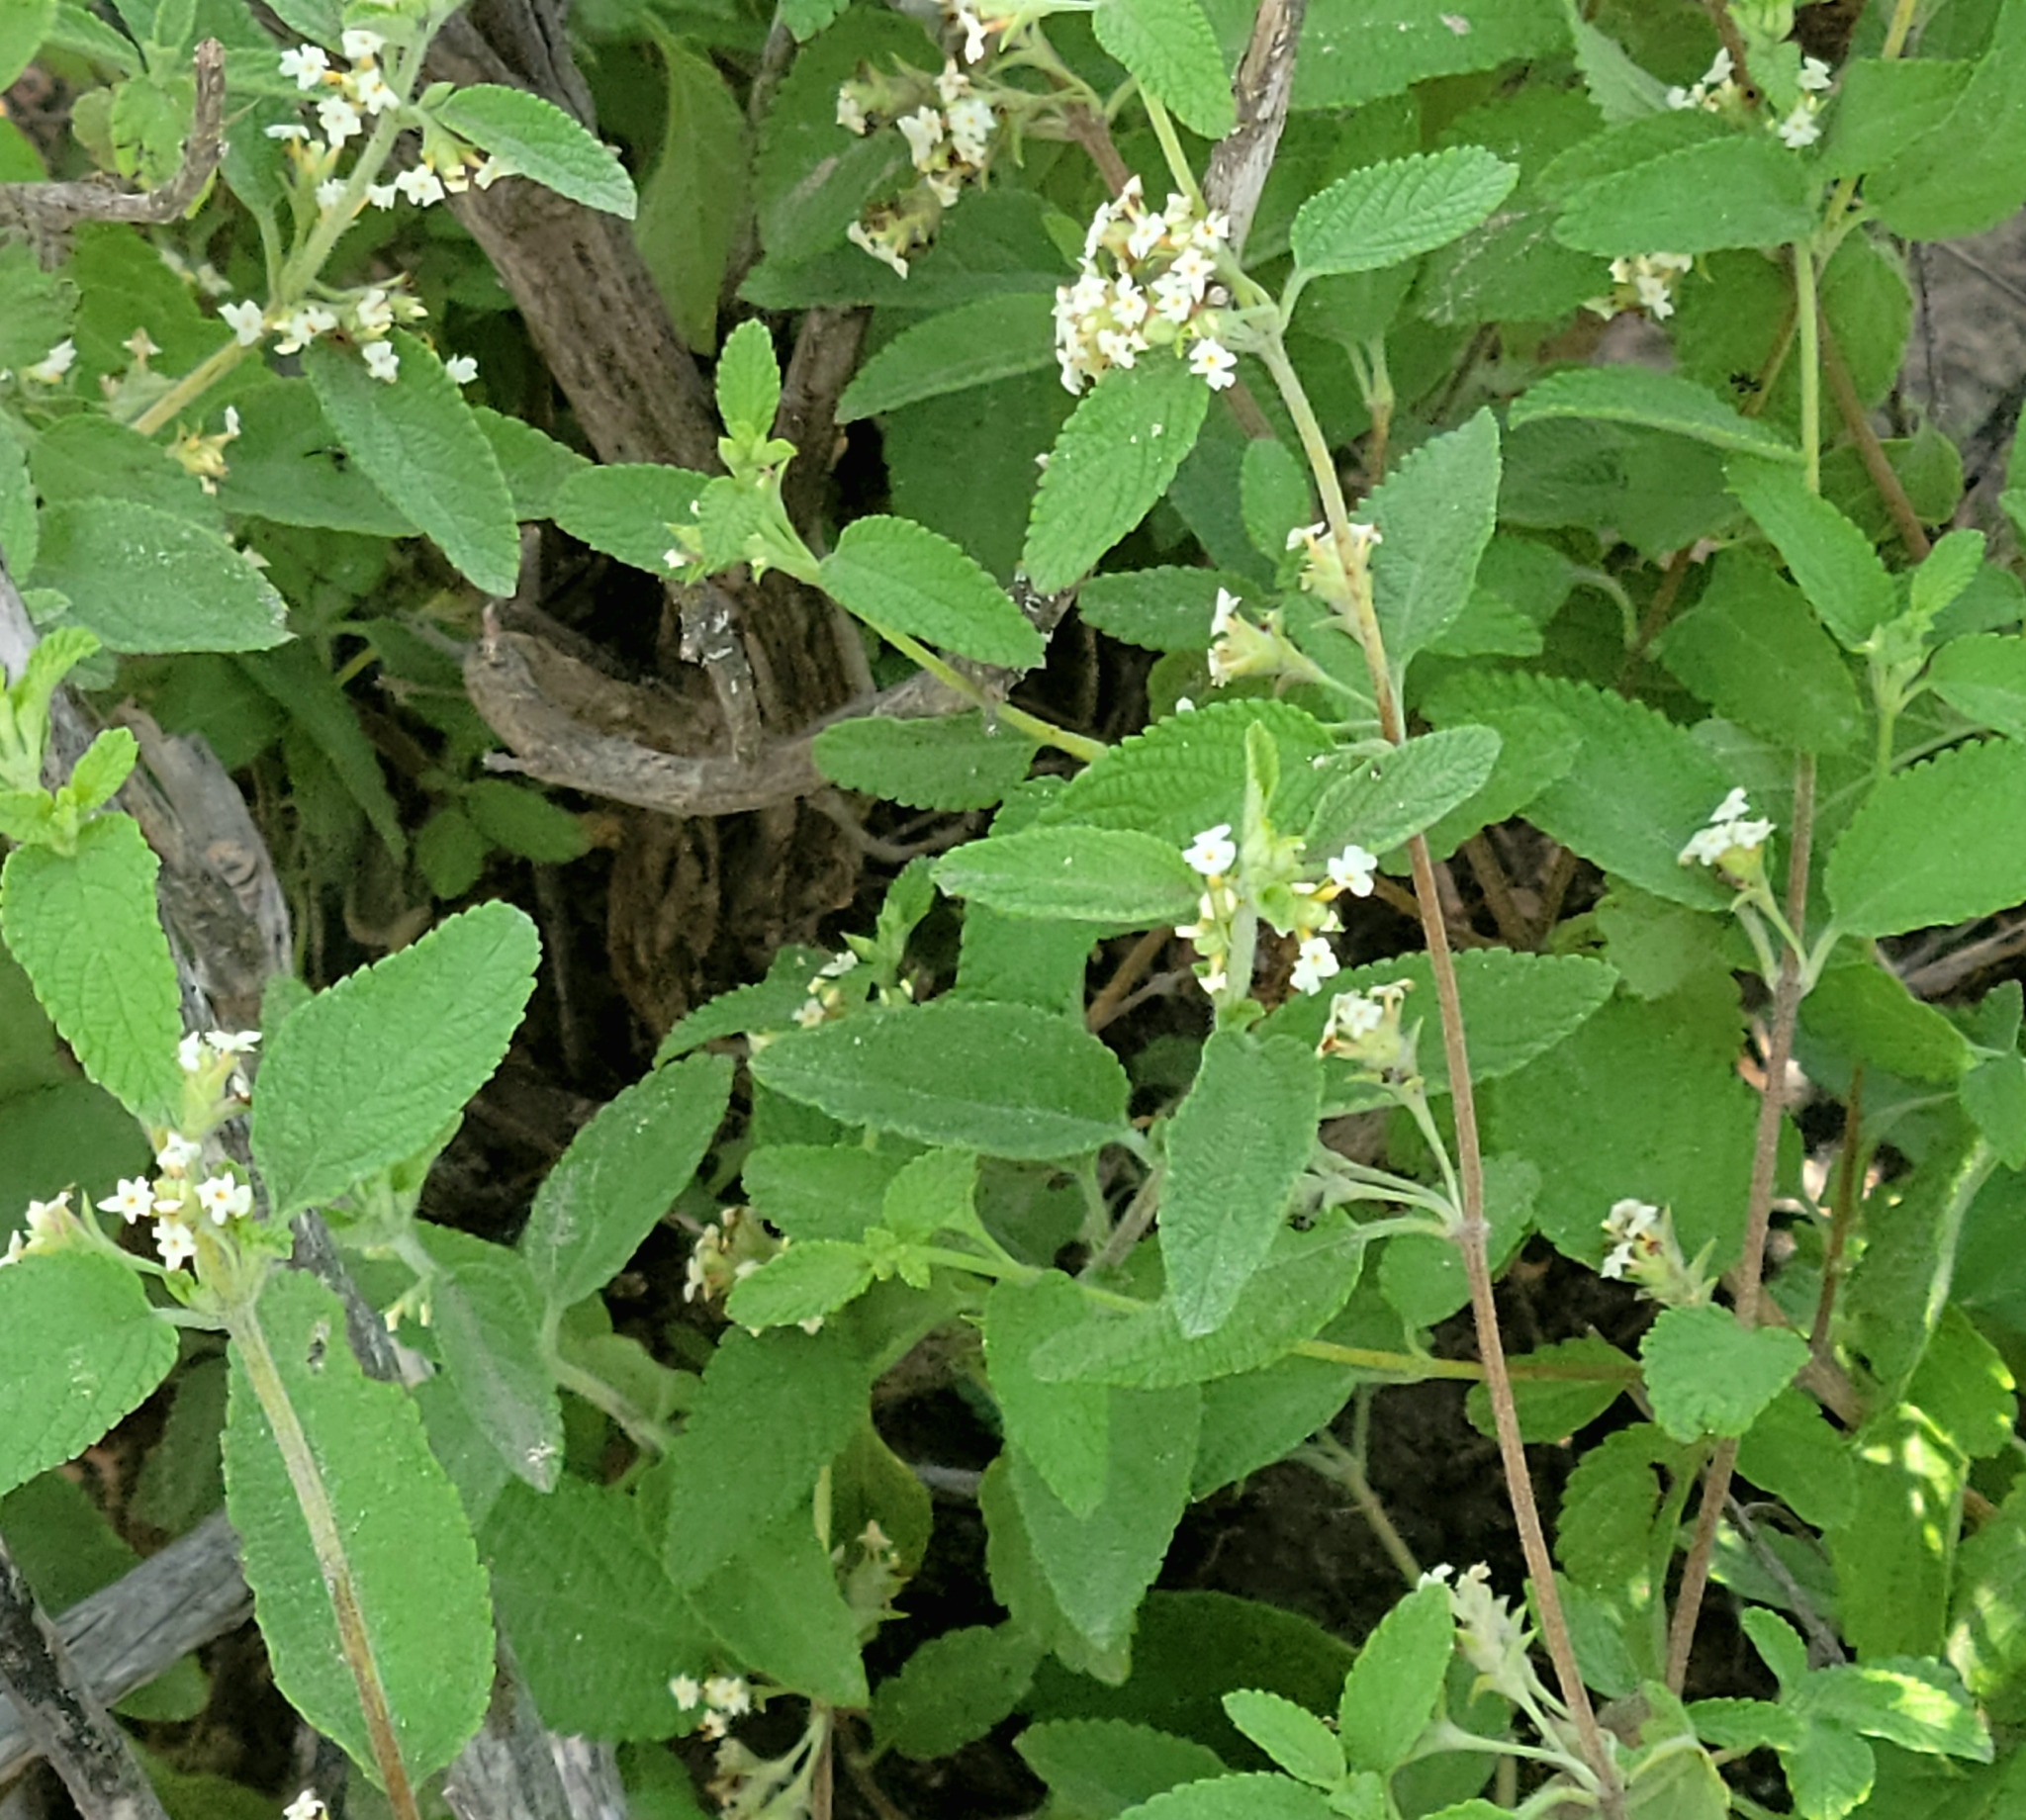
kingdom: Plantae
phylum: Tracheophyta
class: Magnoliopsida
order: Lamiales
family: Verbenaceae
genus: Lippia
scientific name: Lippia origanoides
